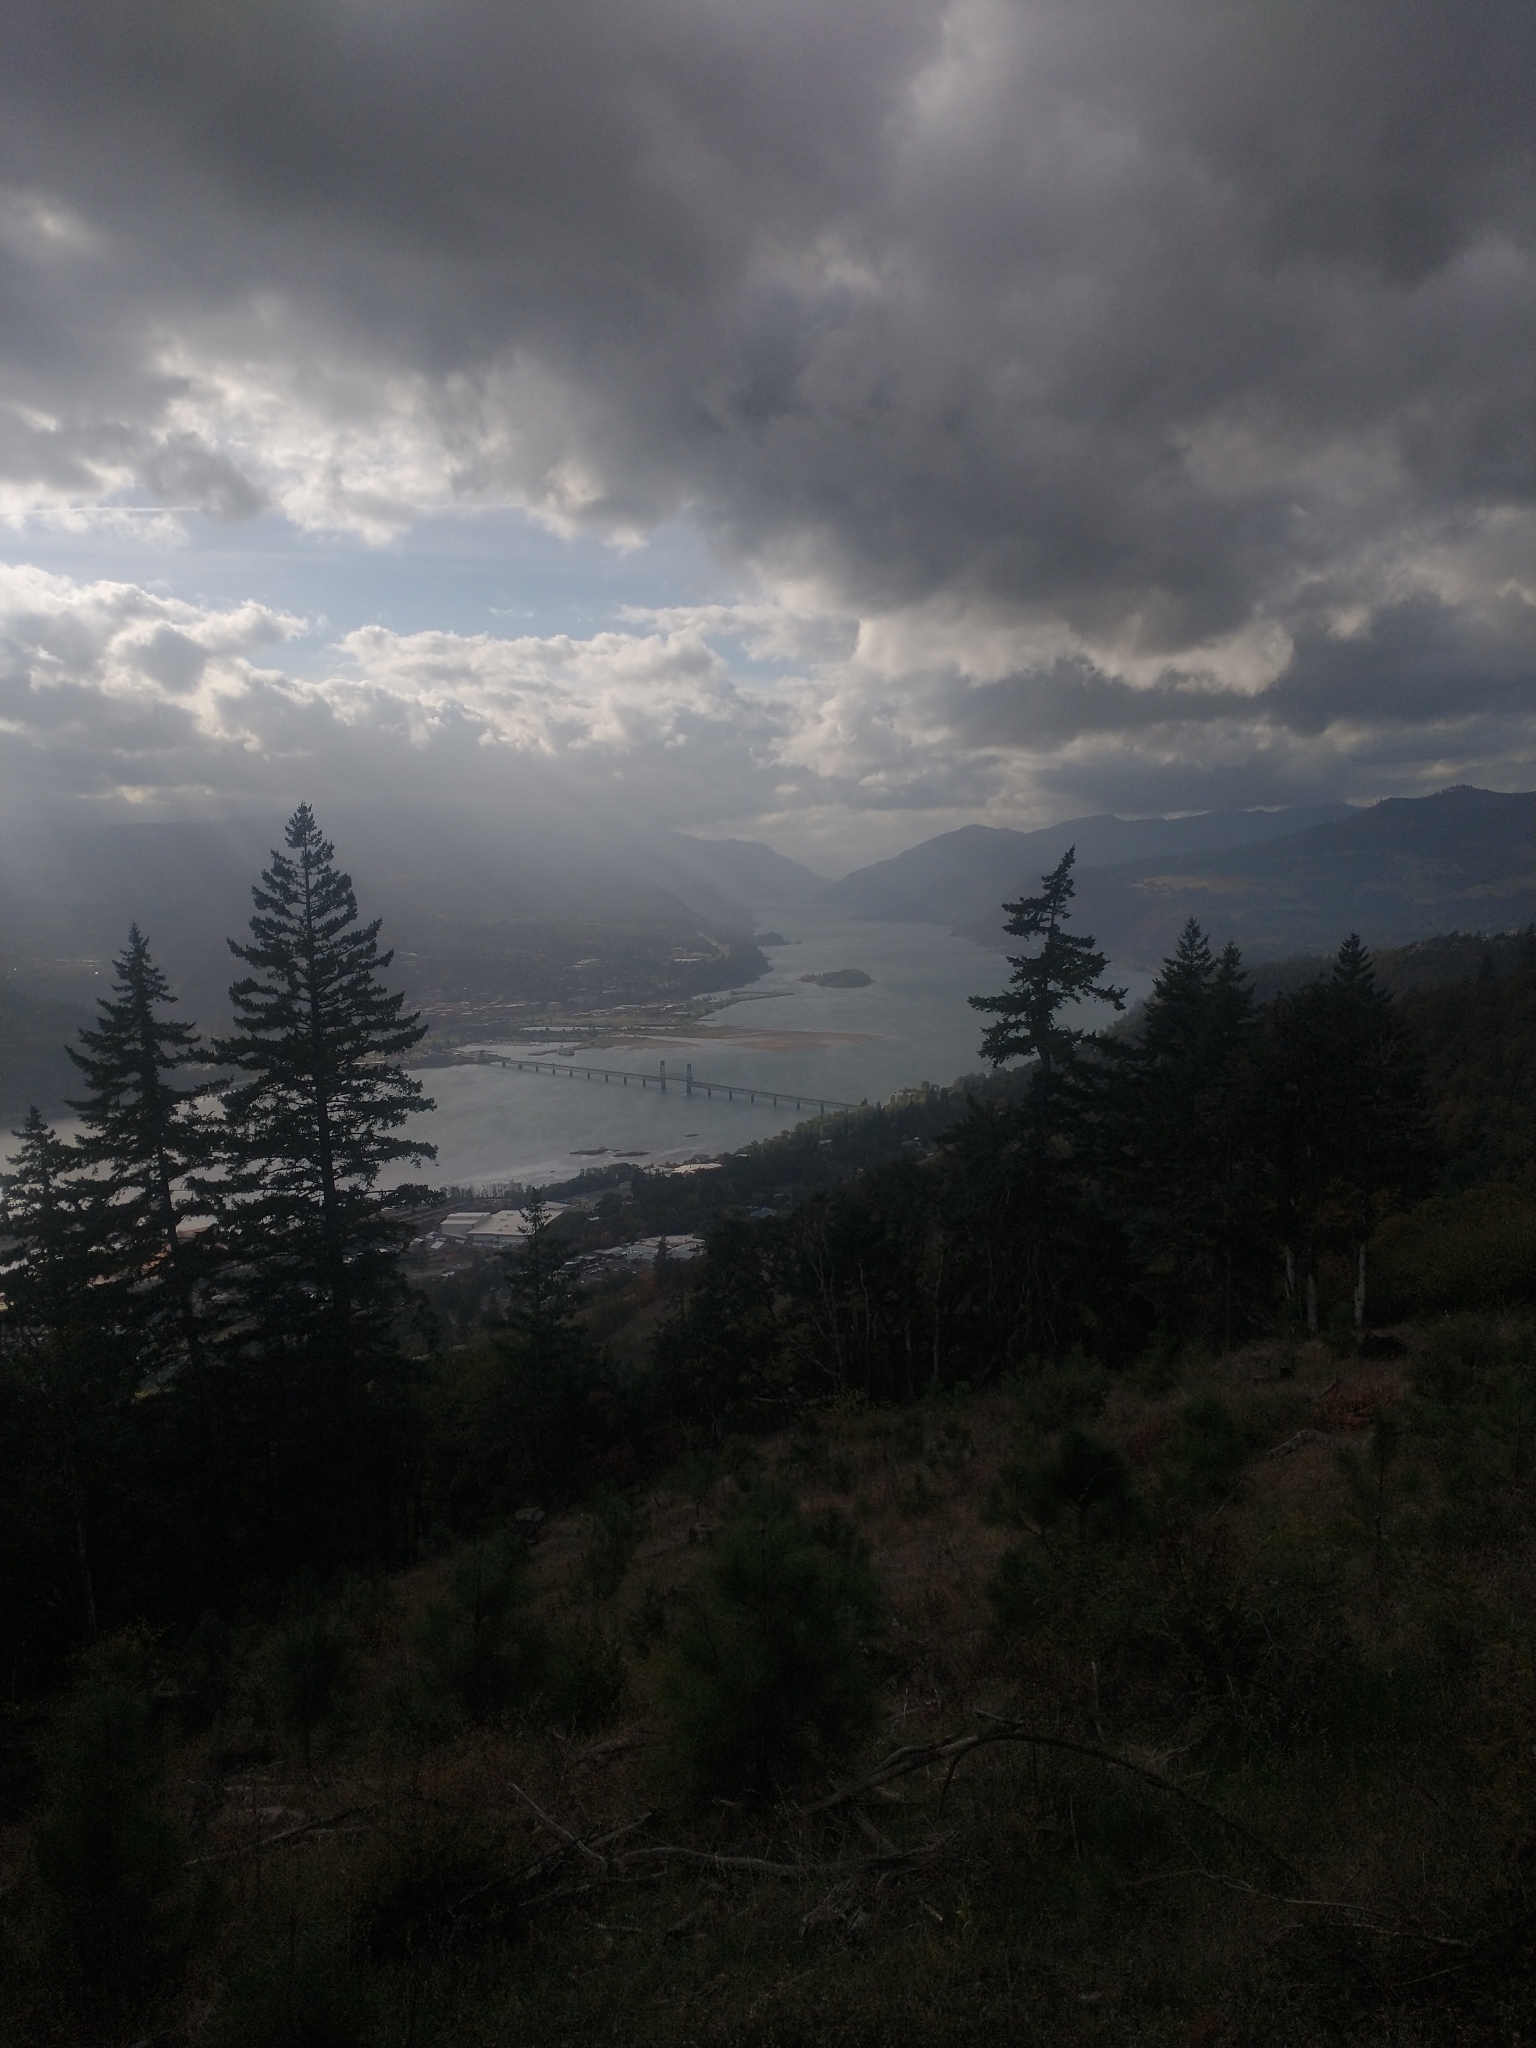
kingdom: Plantae
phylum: Tracheophyta
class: Pinopsida
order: Pinales
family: Pinaceae
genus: Pseudotsuga
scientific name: Pseudotsuga menziesii
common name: Douglas fir
